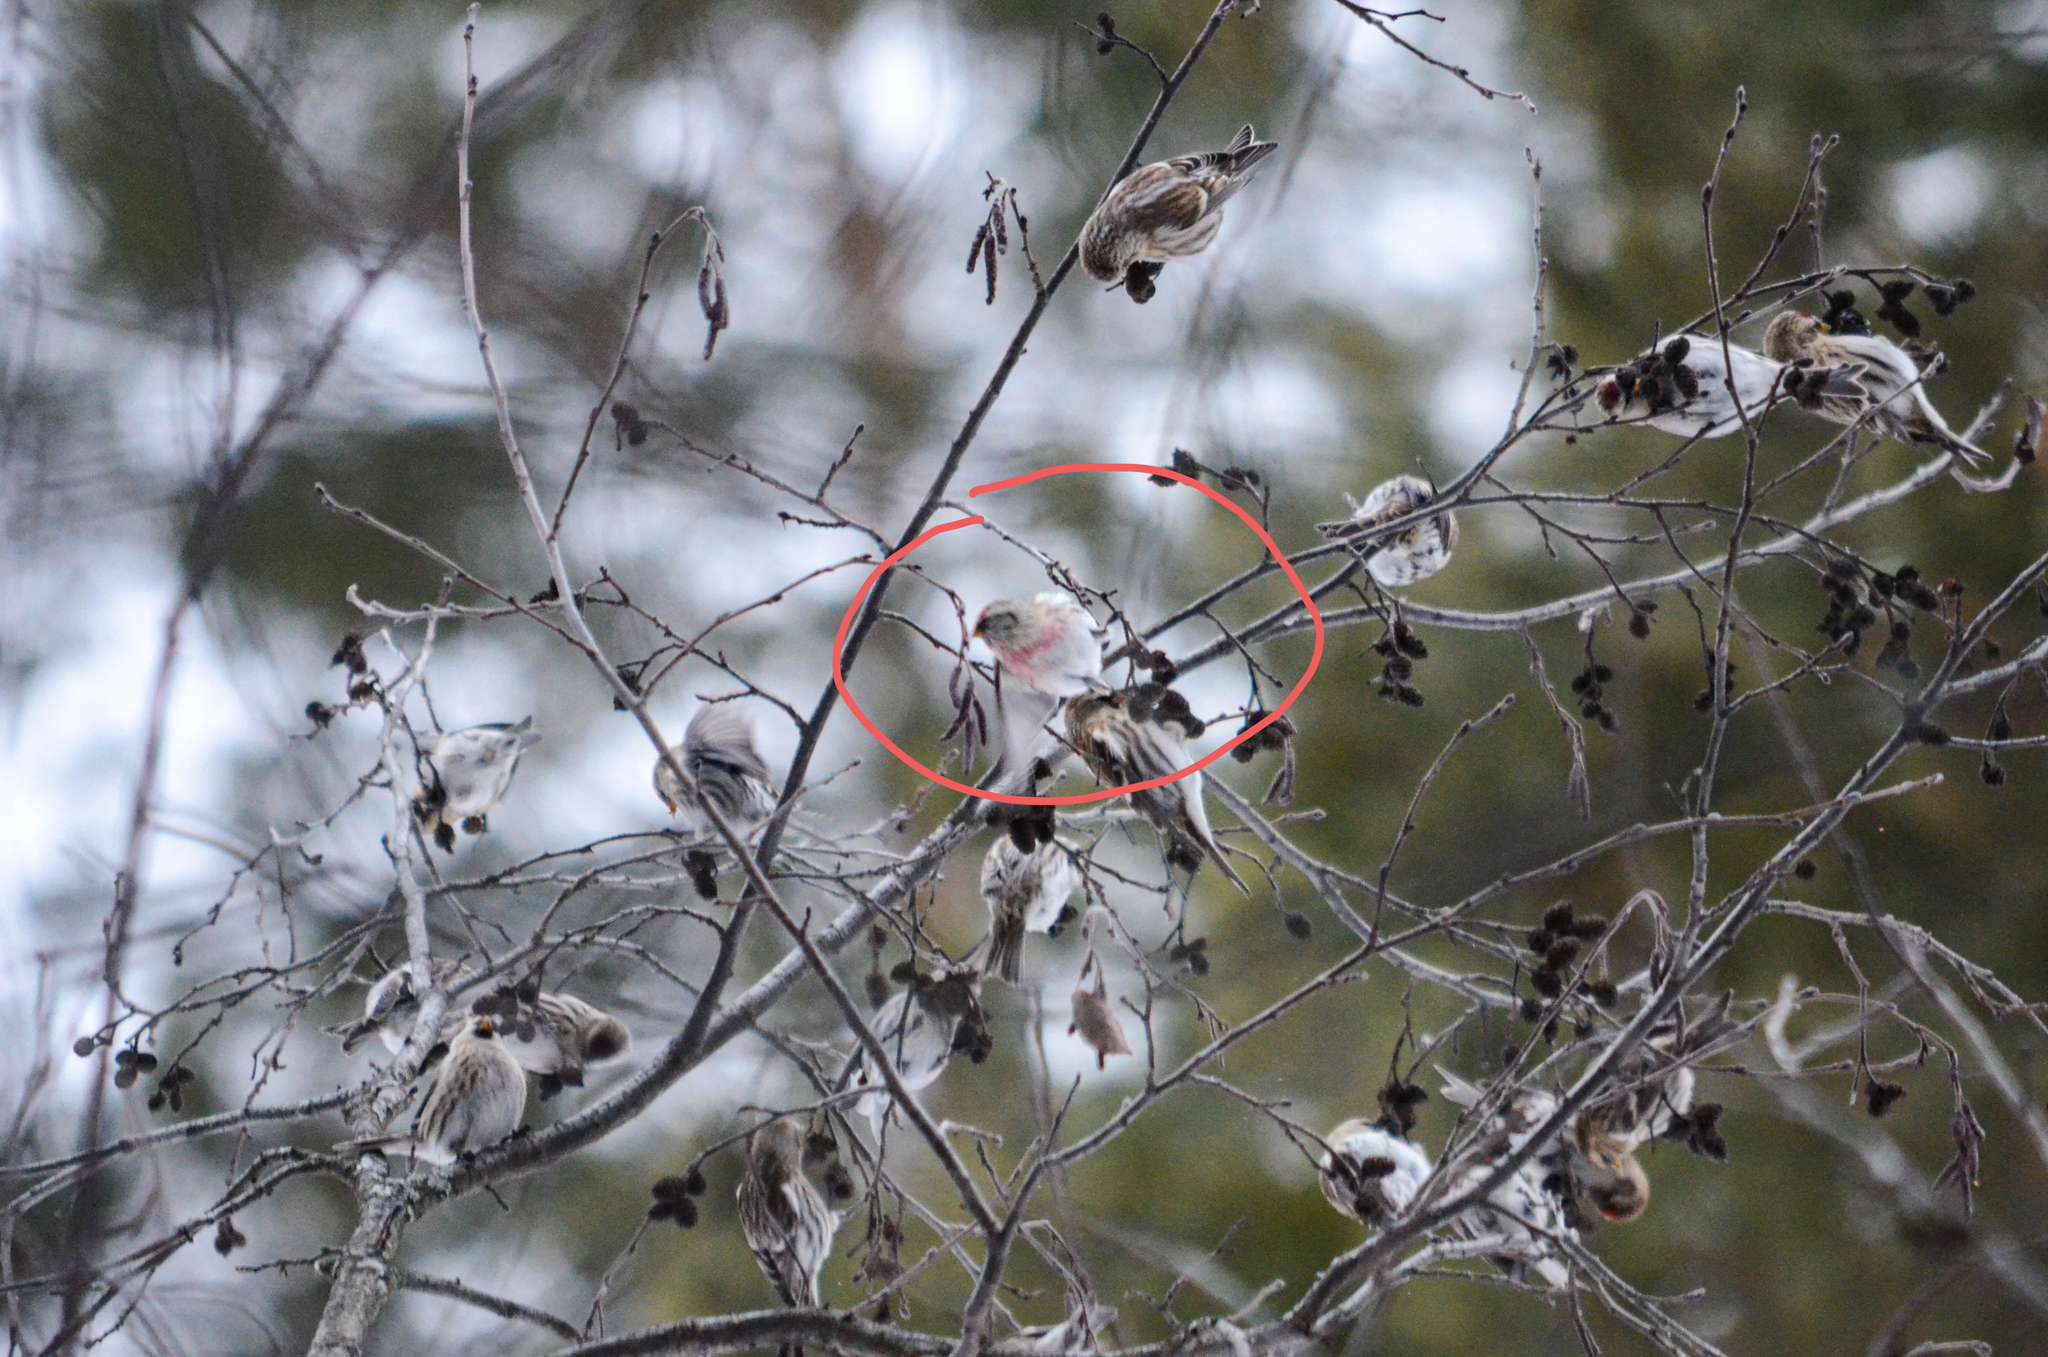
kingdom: Animalia
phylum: Chordata
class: Aves
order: Passeriformes
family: Fringillidae
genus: Acanthis
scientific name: Acanthis hornemanni
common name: Arctic redpoll
